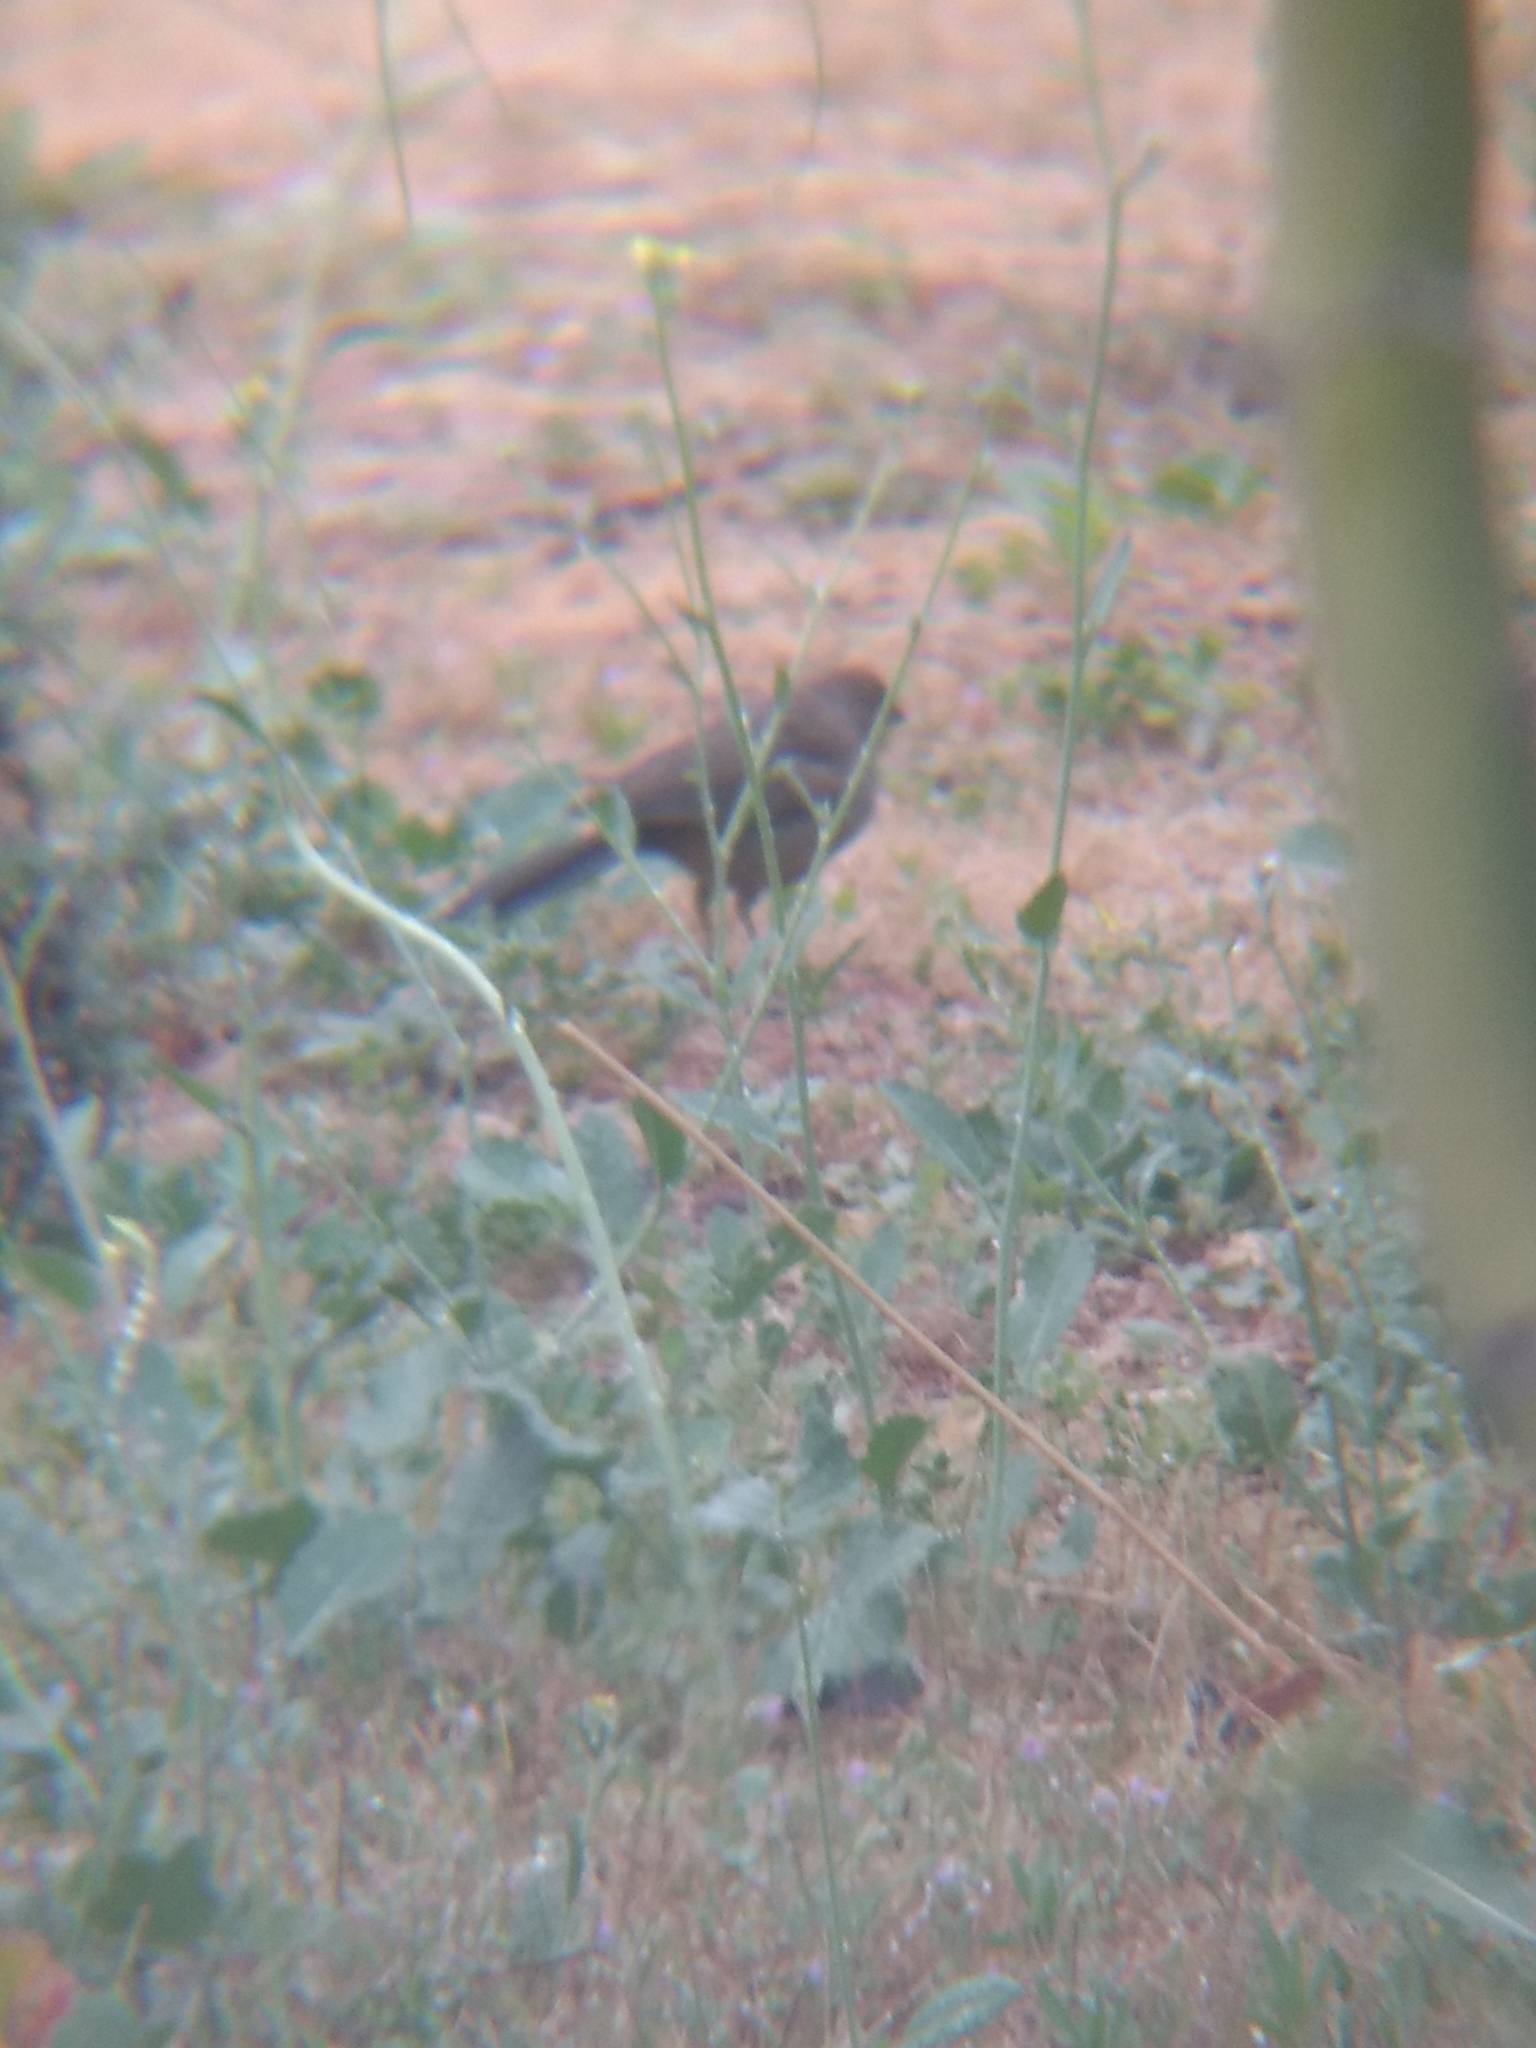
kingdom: Animalia
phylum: Chordata
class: Aves
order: Passeriformes
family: Passerellidae
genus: Melozone
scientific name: Melozone crissalis
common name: California towhee
